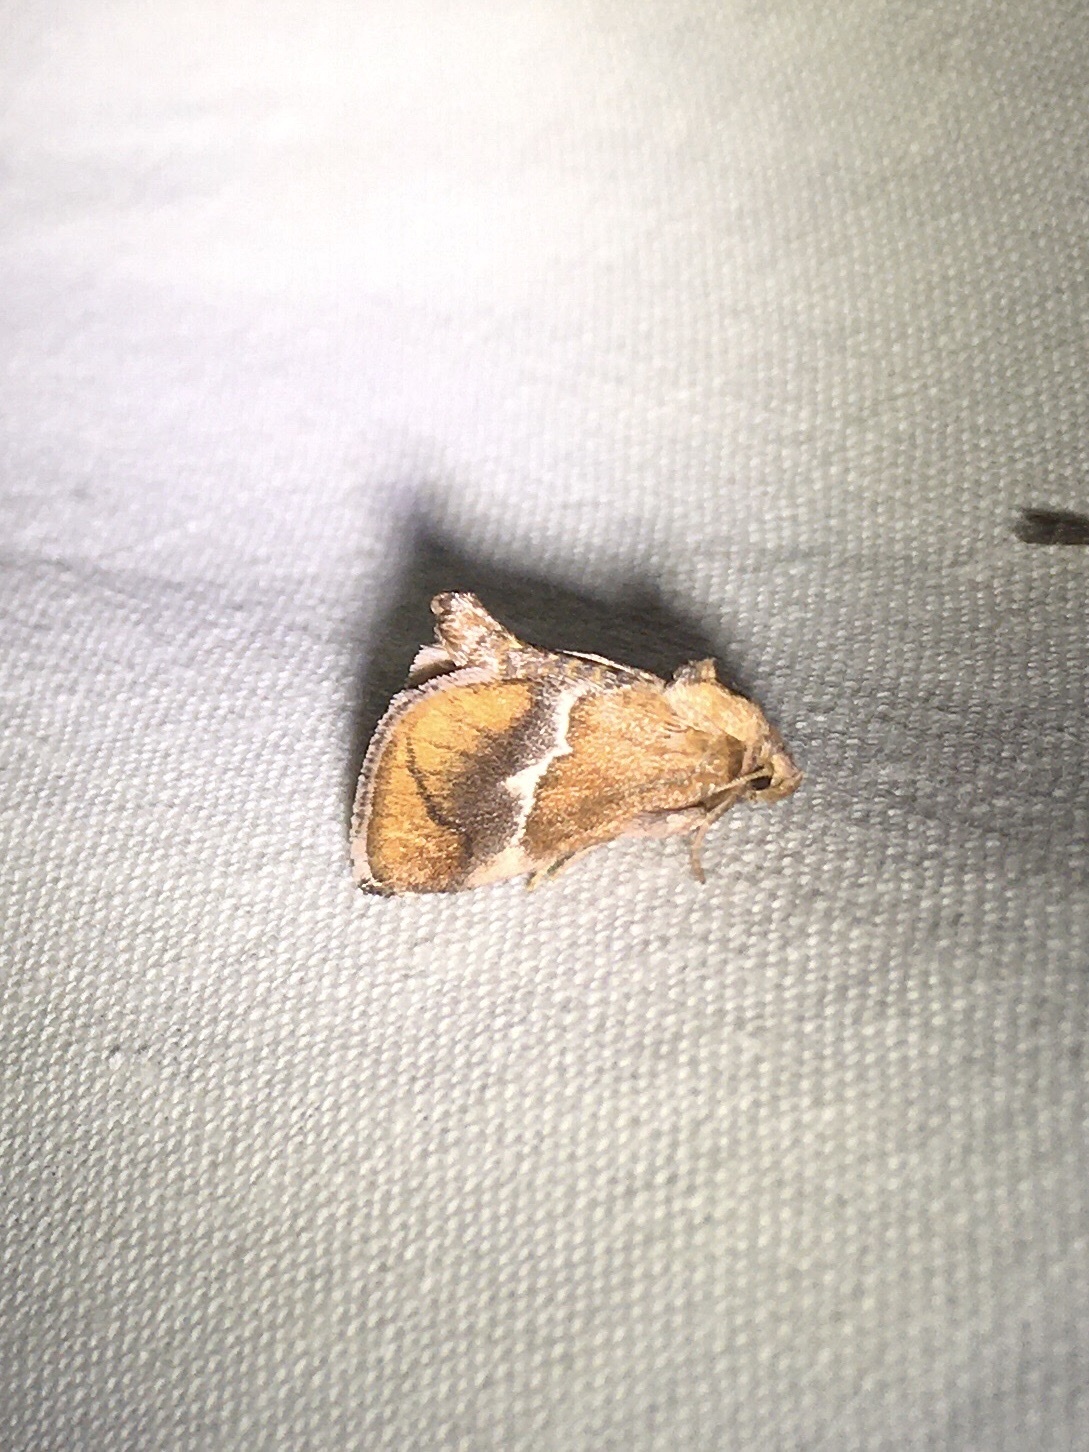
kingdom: Animalia
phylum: Arthropoda
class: Insecta
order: Lepidoptera
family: Limacodidae
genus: Lithacodes
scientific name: Lithacodes fasciola
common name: Yellow-shouldered slug moth
